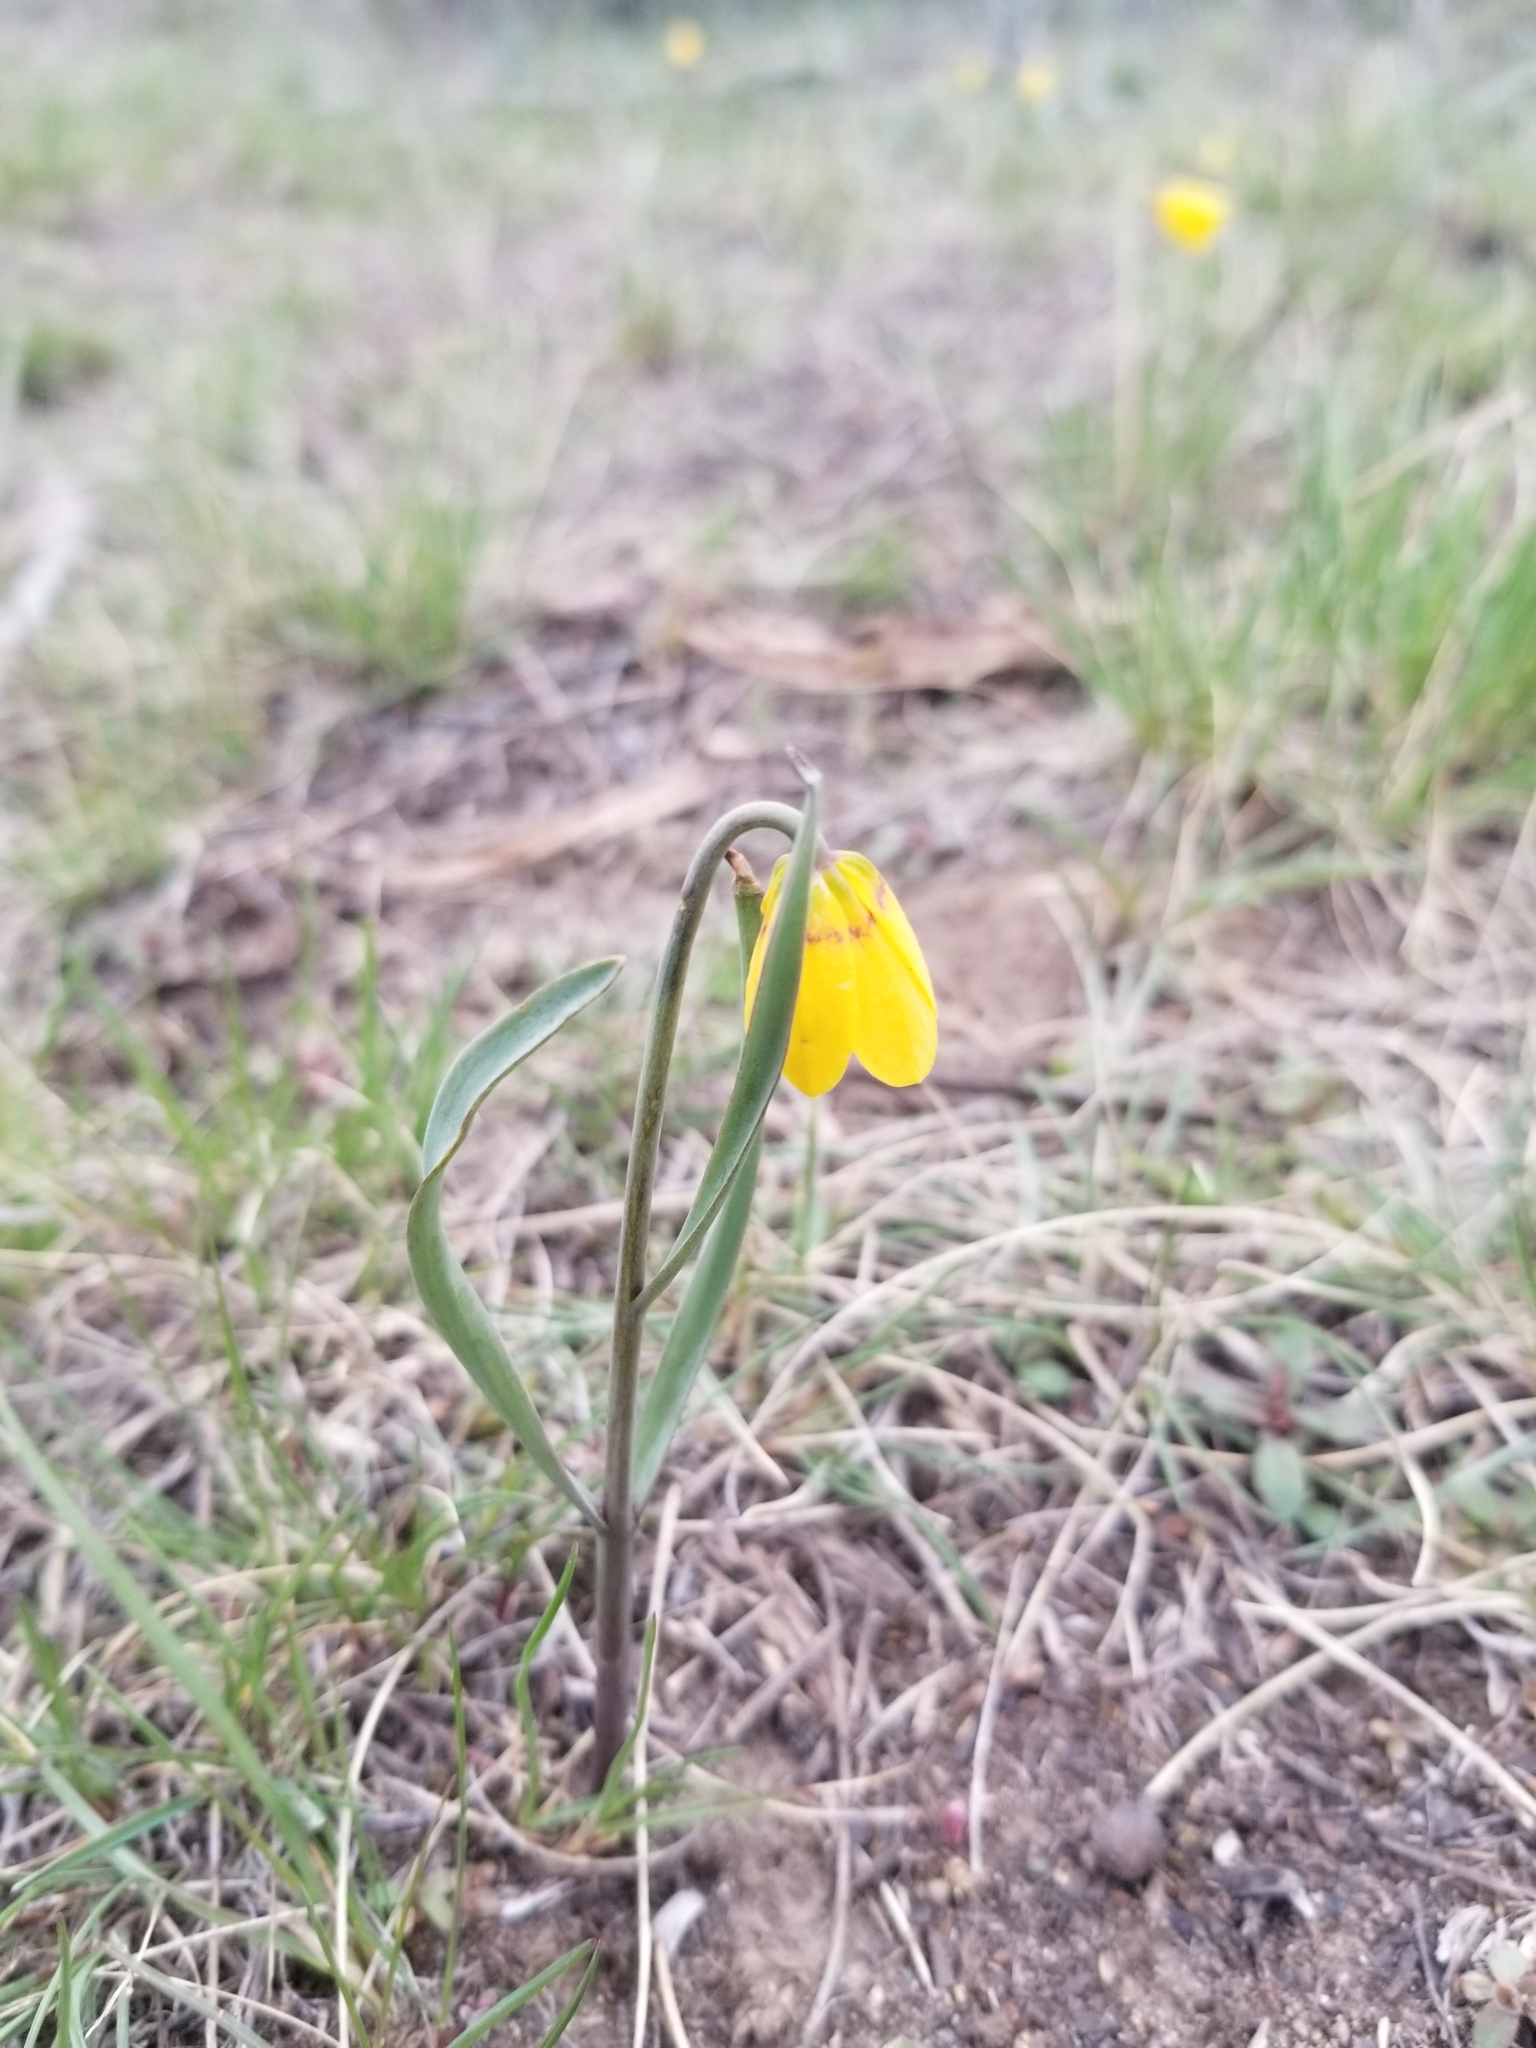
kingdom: Plantae
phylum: Tracheophyta
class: Liliopsida
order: Liliales
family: Liliaceae
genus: Fritillaria
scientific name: Fritillaria pudica
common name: Yellow fritillary
